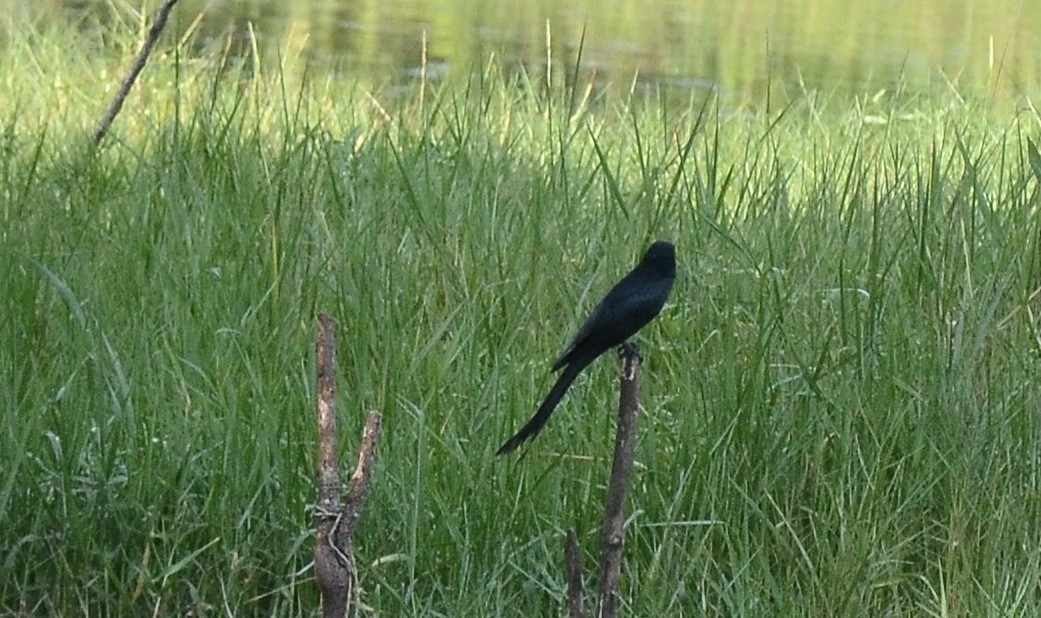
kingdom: Animalia
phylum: Chordata
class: Aves
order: Passeriformes
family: Dicruridae
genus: Dicrurus
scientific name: Dicrurus macrocercus
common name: Black drongo
